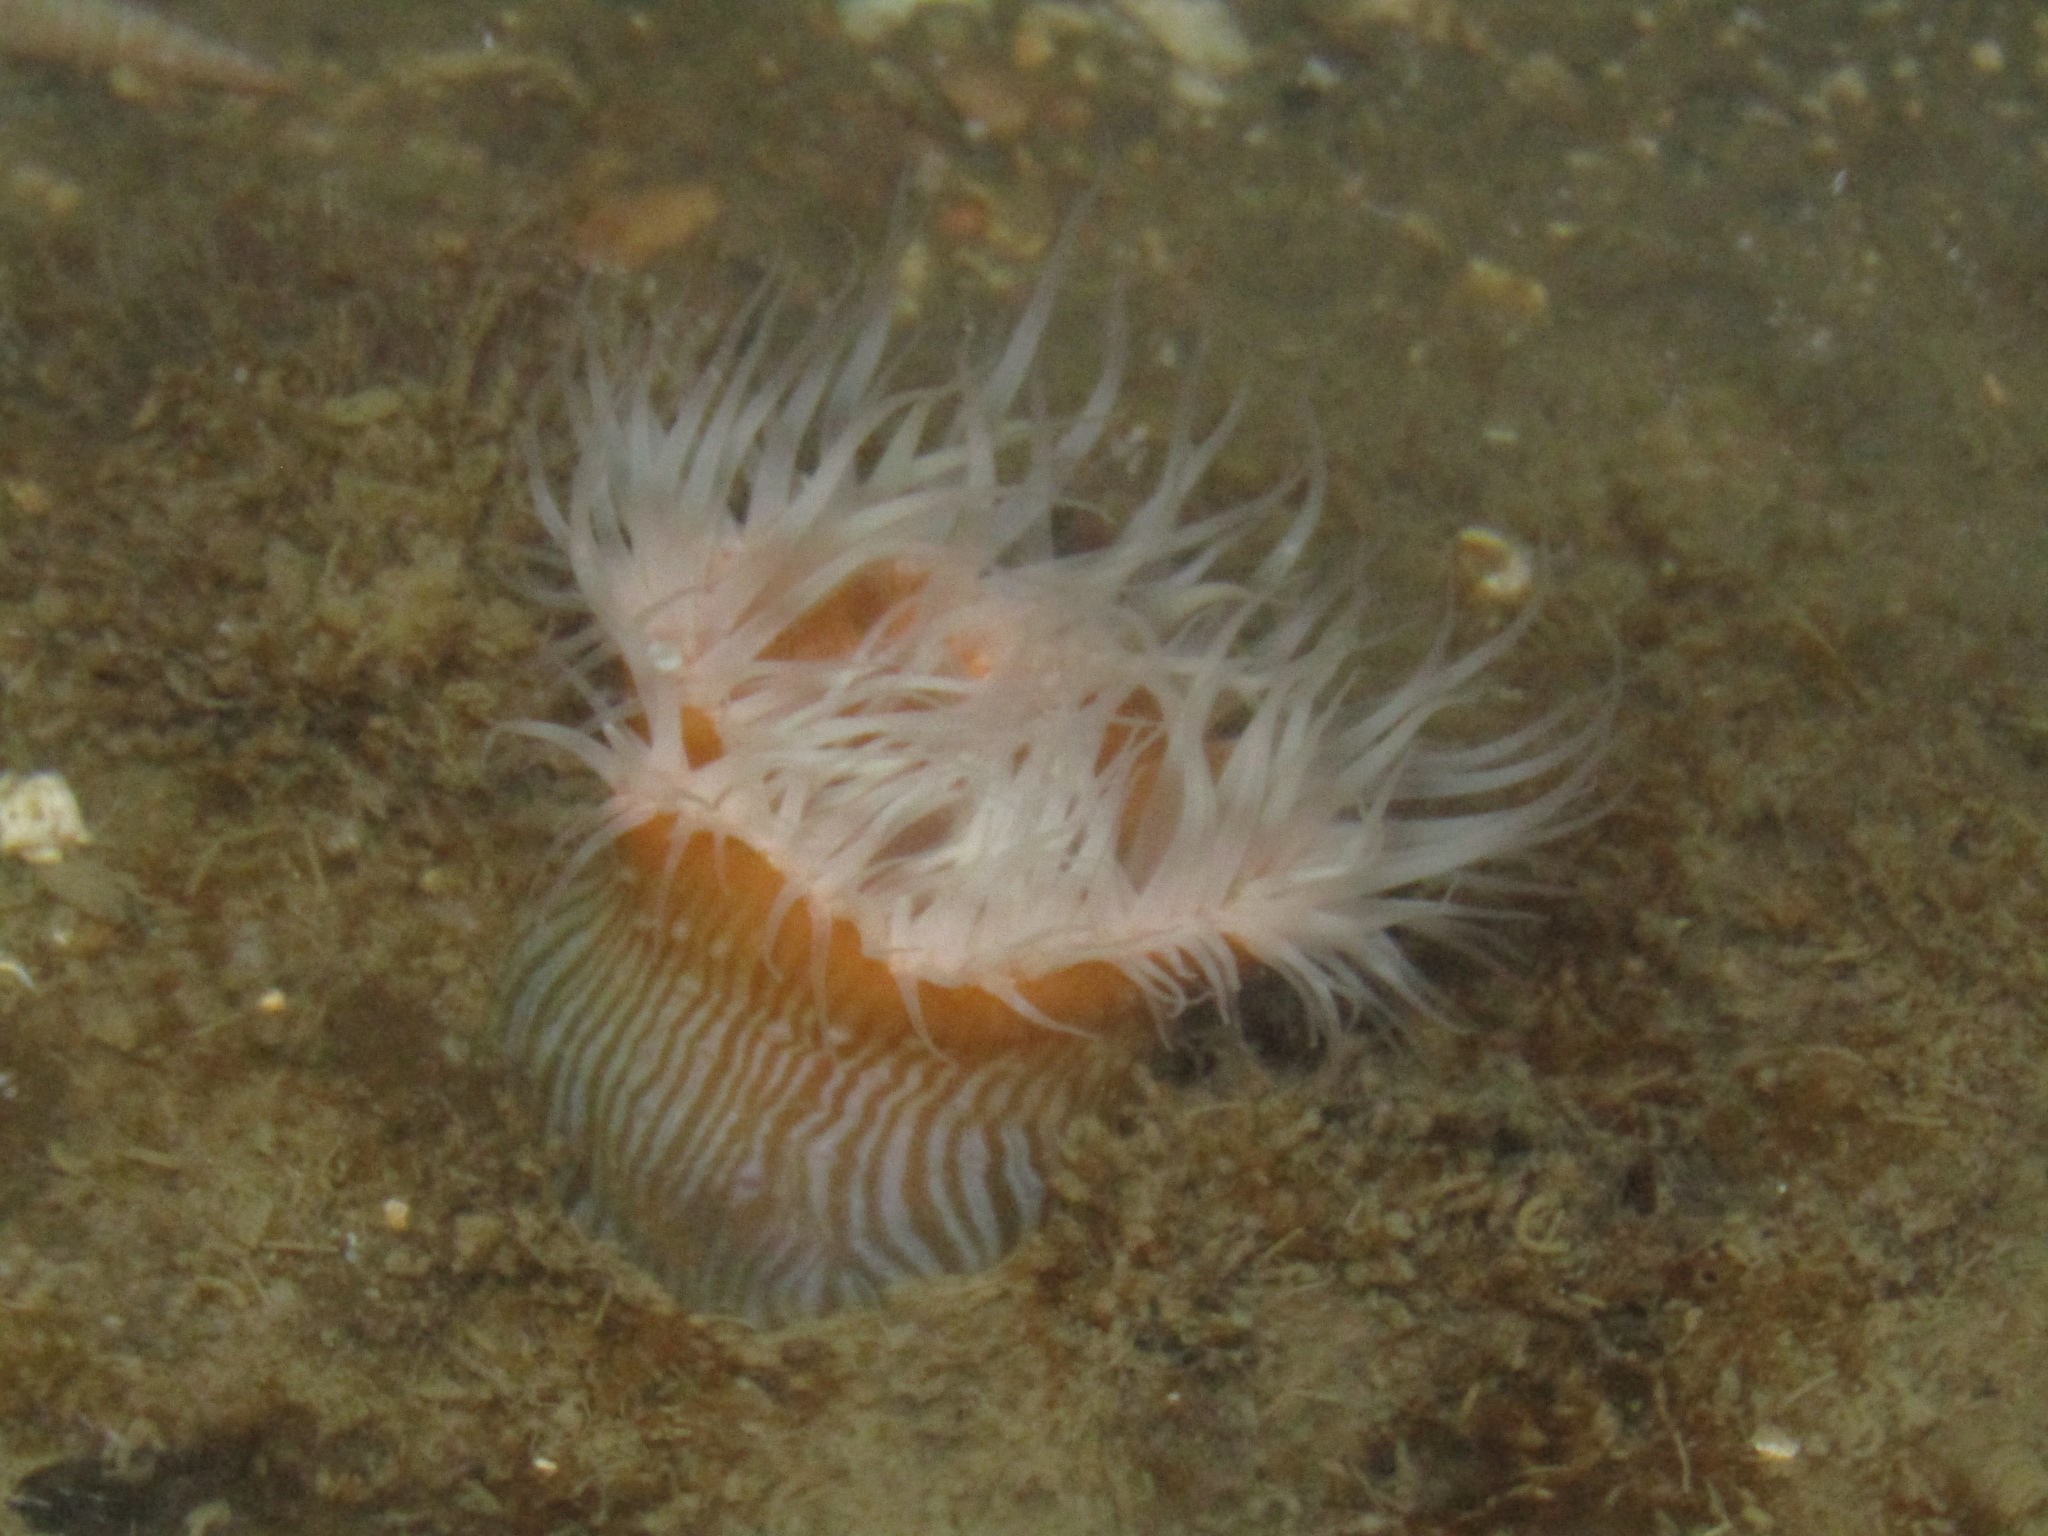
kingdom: Animalia
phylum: Cnidaria
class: Anthozoa
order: Actiniaria
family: Sagartiidae
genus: Anthothoe
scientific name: Anthothoe albocincta
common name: Orange striped anemone
